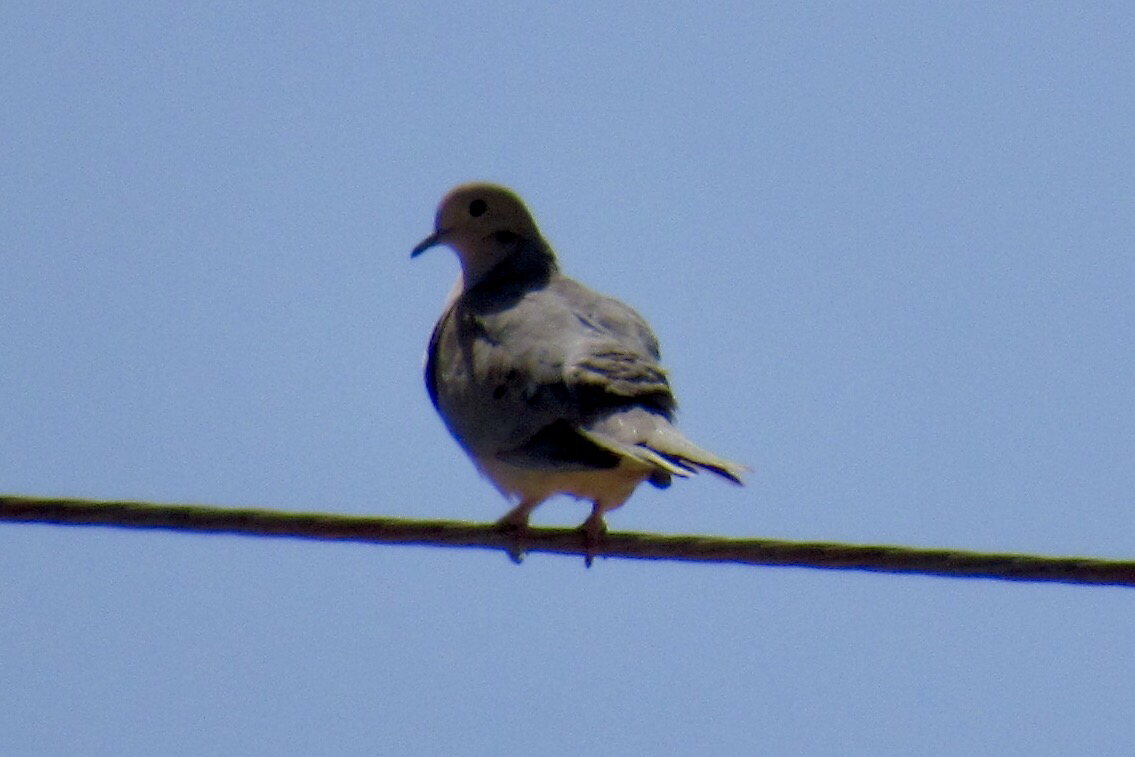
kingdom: Animalia
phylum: Chordata
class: Aves
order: Columbiformes
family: Columbidae
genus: Zenaida
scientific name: Zenaida macroura
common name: Mourning dove
